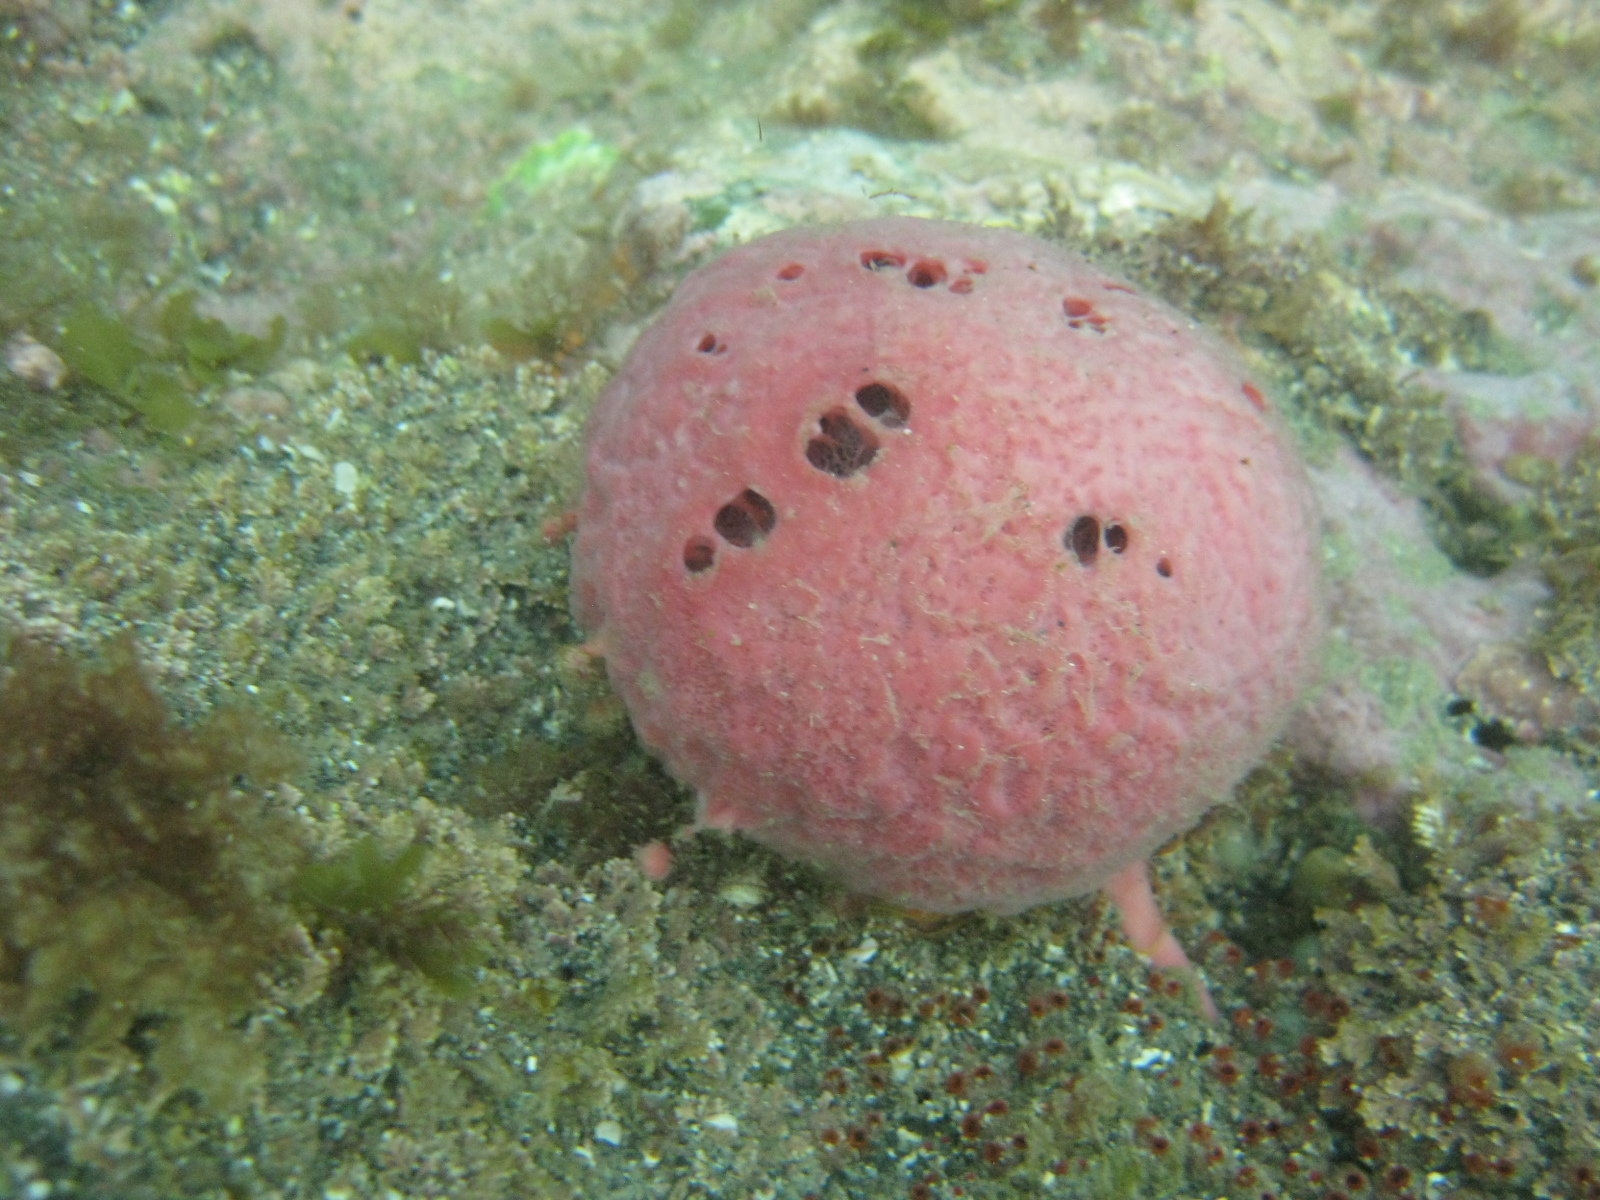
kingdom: Animalia
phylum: Porifera
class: Demospongiae
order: Tethyida
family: Tethyidae
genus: Tethya
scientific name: Tethya bergquistae
